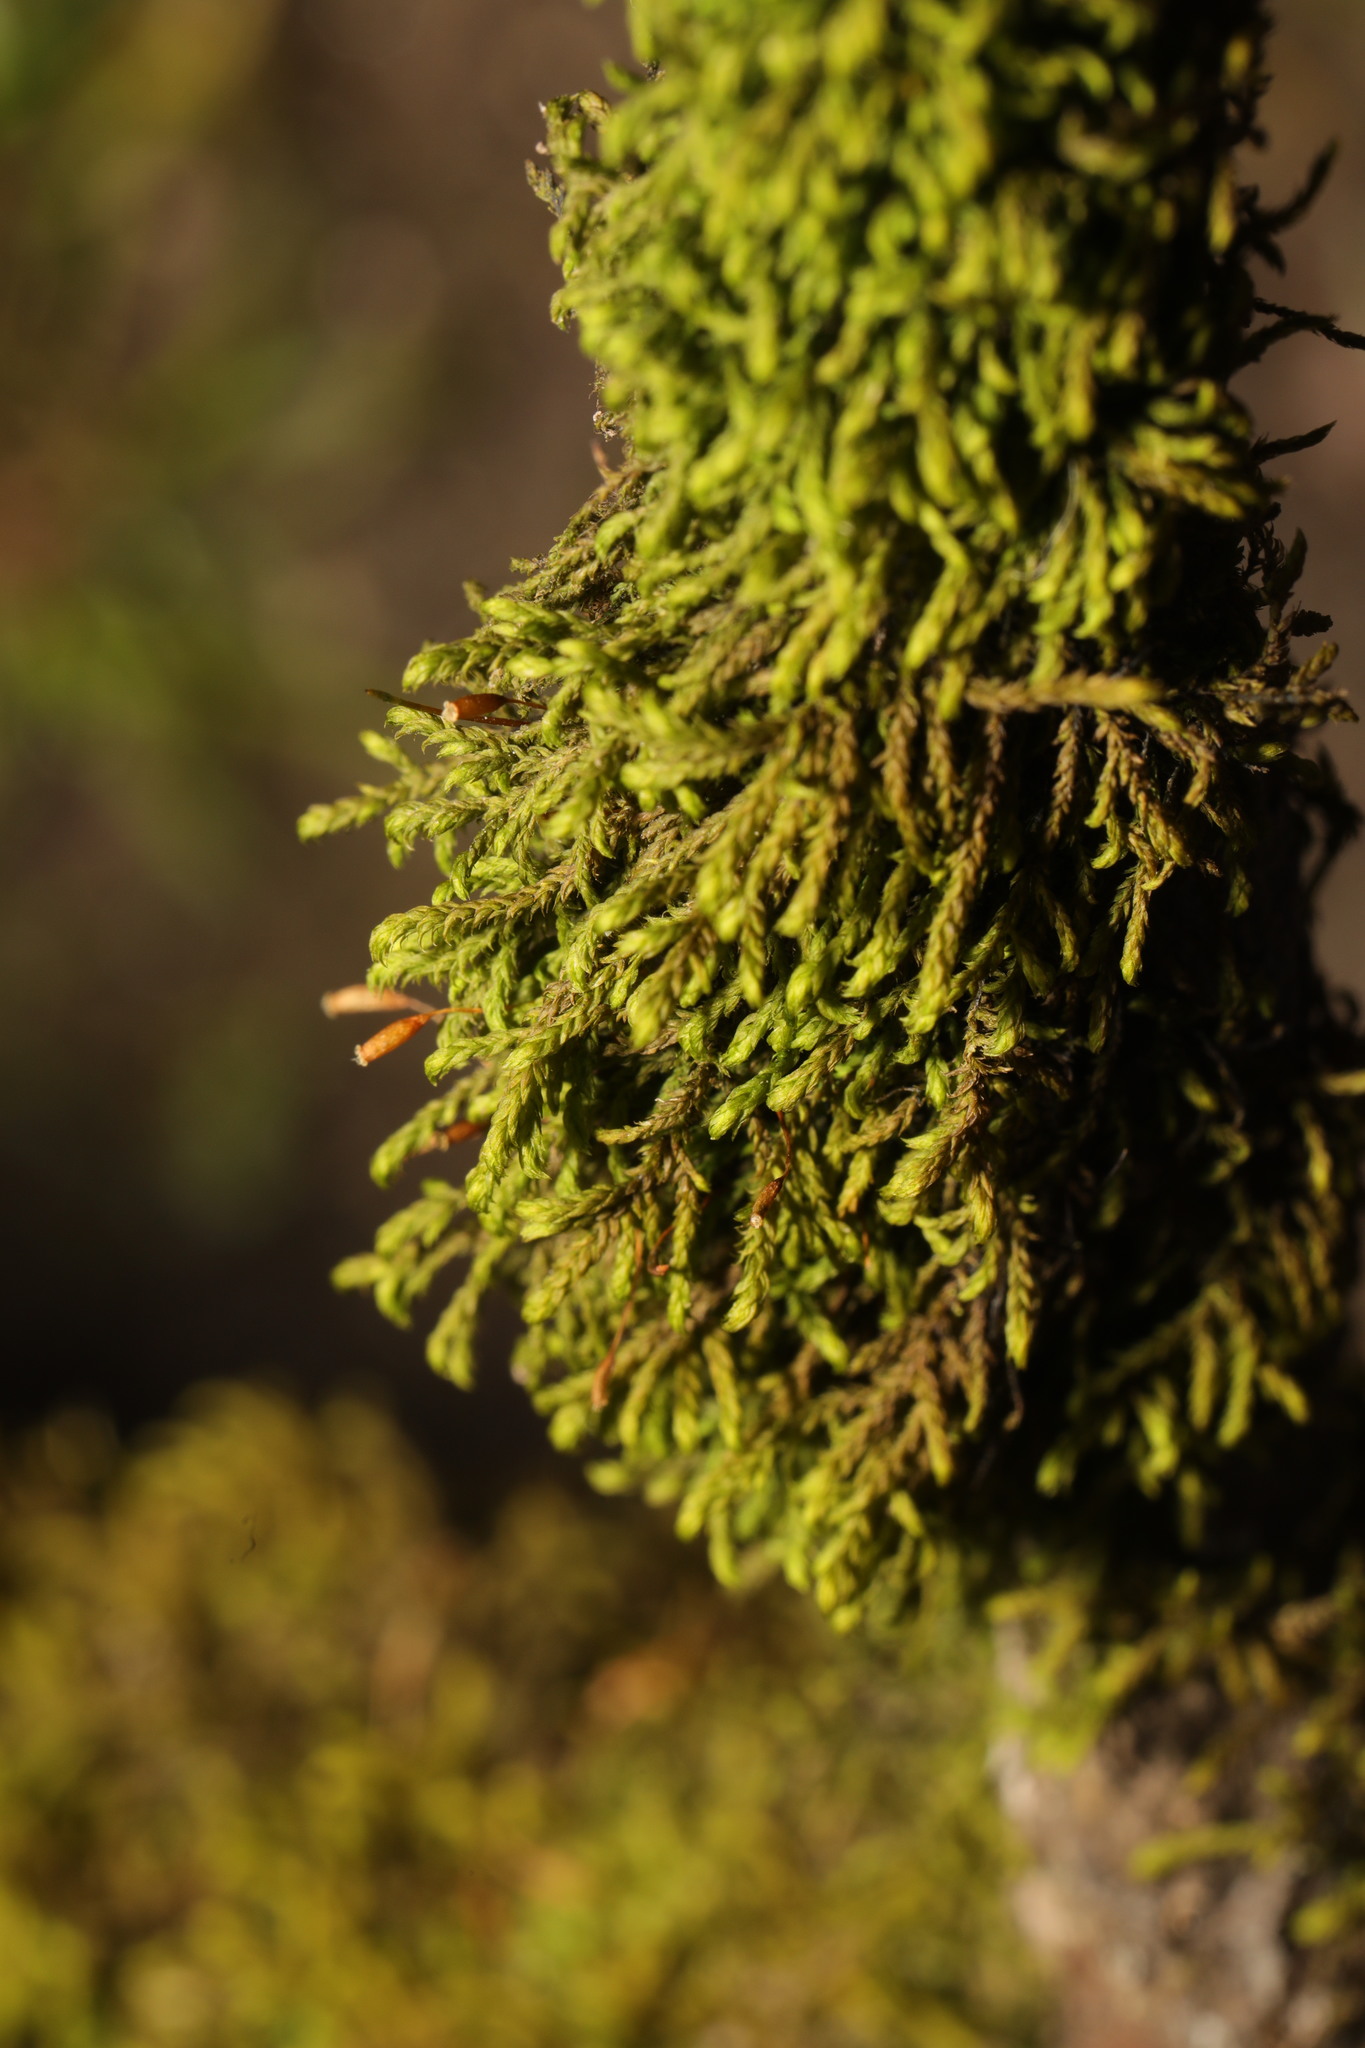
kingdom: Plantae
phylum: Bryophyta
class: Bryopsida
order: Hypnales
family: Pterigynandraceae
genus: Pterigynandrum
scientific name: Pterigynandrum filiforme
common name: Capillary wing moss
